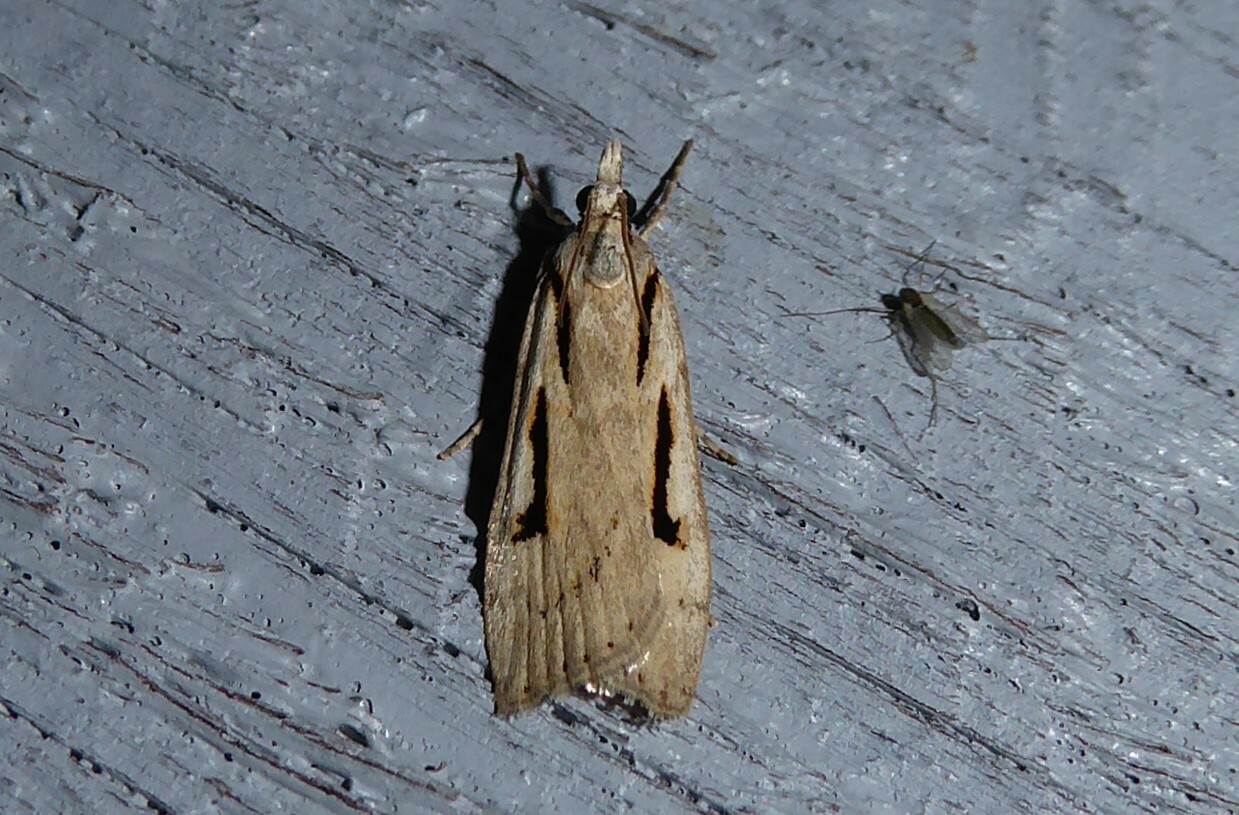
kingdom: Animalia
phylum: Arthropoda
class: Insecta
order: Lepidoptera
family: Crambidae
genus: Scoparia
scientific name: Scoparia rotuellus
